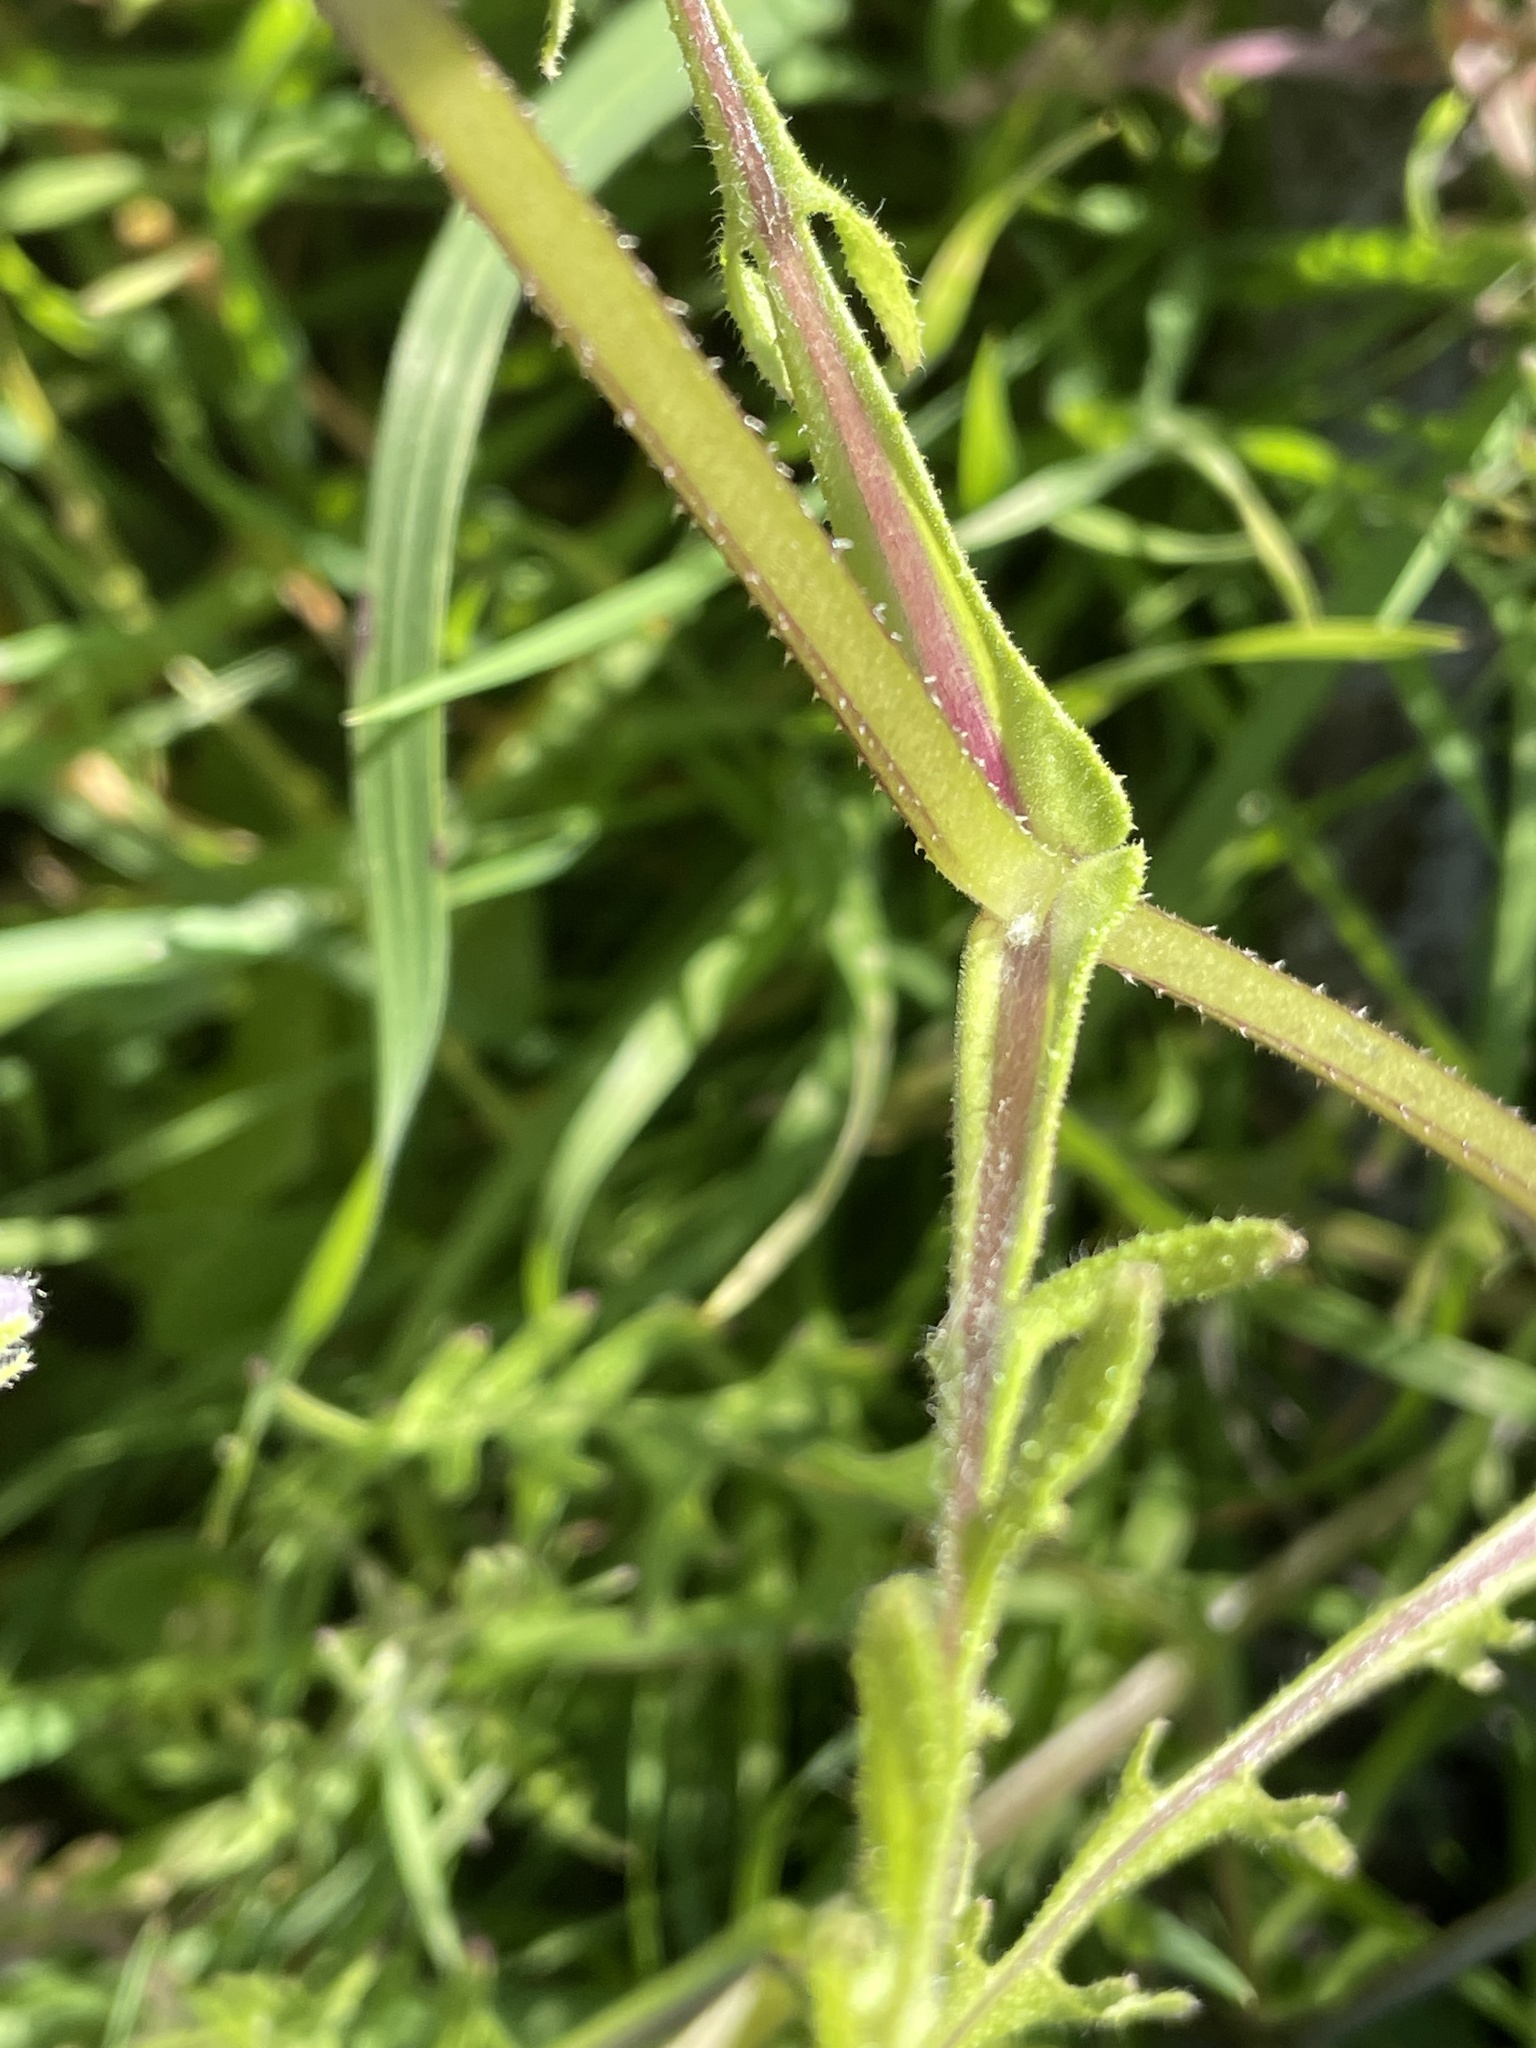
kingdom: Plantae
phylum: Tracheophyta
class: Magnoliopsida
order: Boraginales
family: Hydrophyllaceae
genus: Pholistoma
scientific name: Pholistoma auritum
